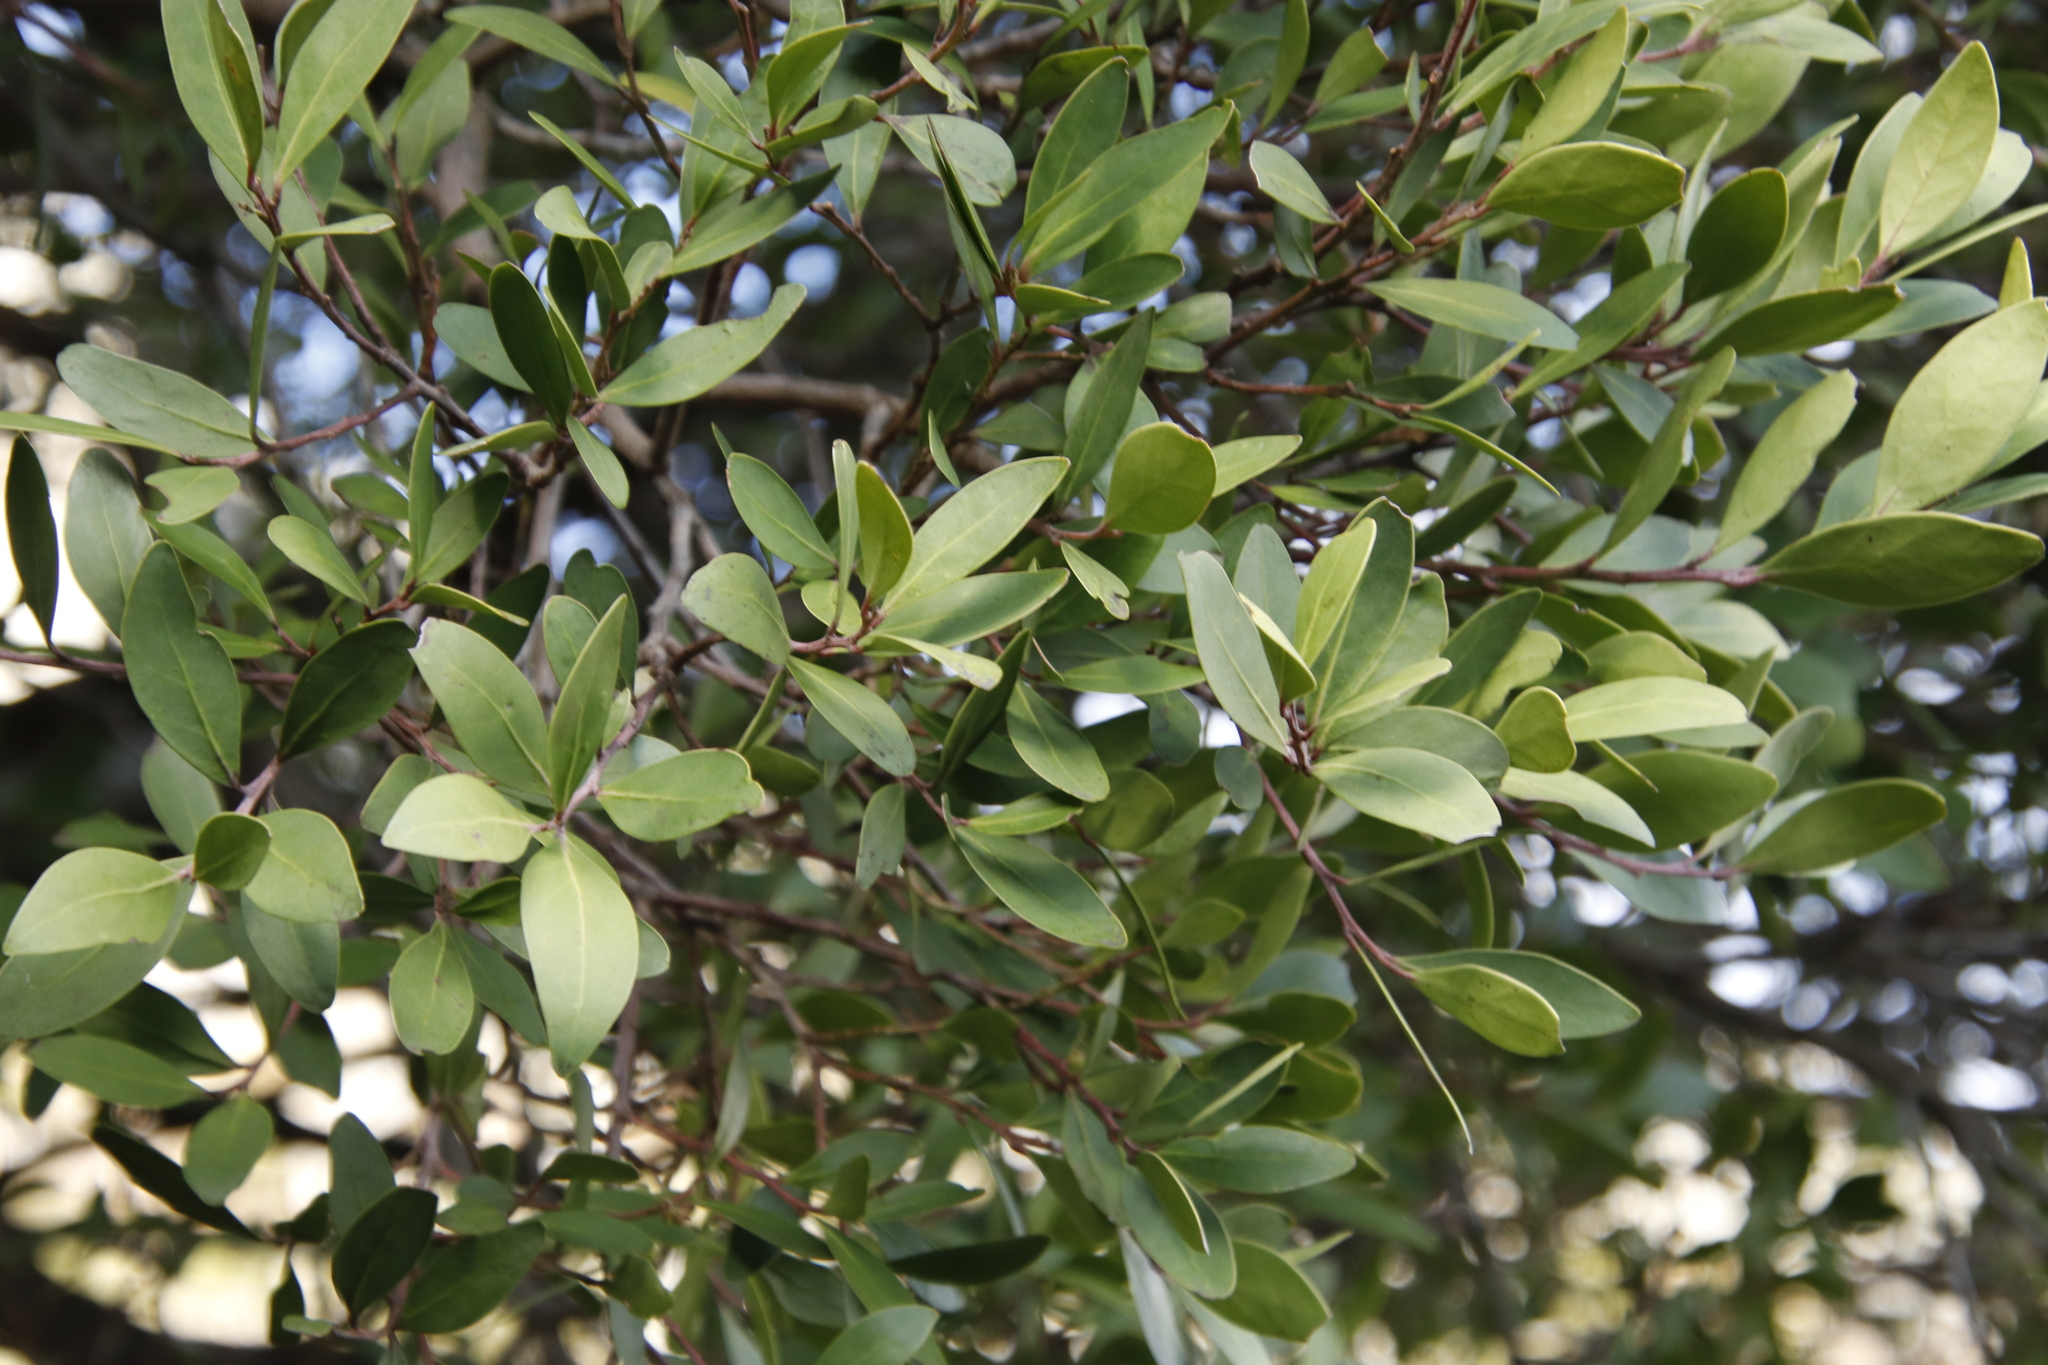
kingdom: Plantae
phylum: Tracheophyta
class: Magnoliopsida
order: Celastrales
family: Celastraceae
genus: Gymnosporia
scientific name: Gymnosporia laurina
